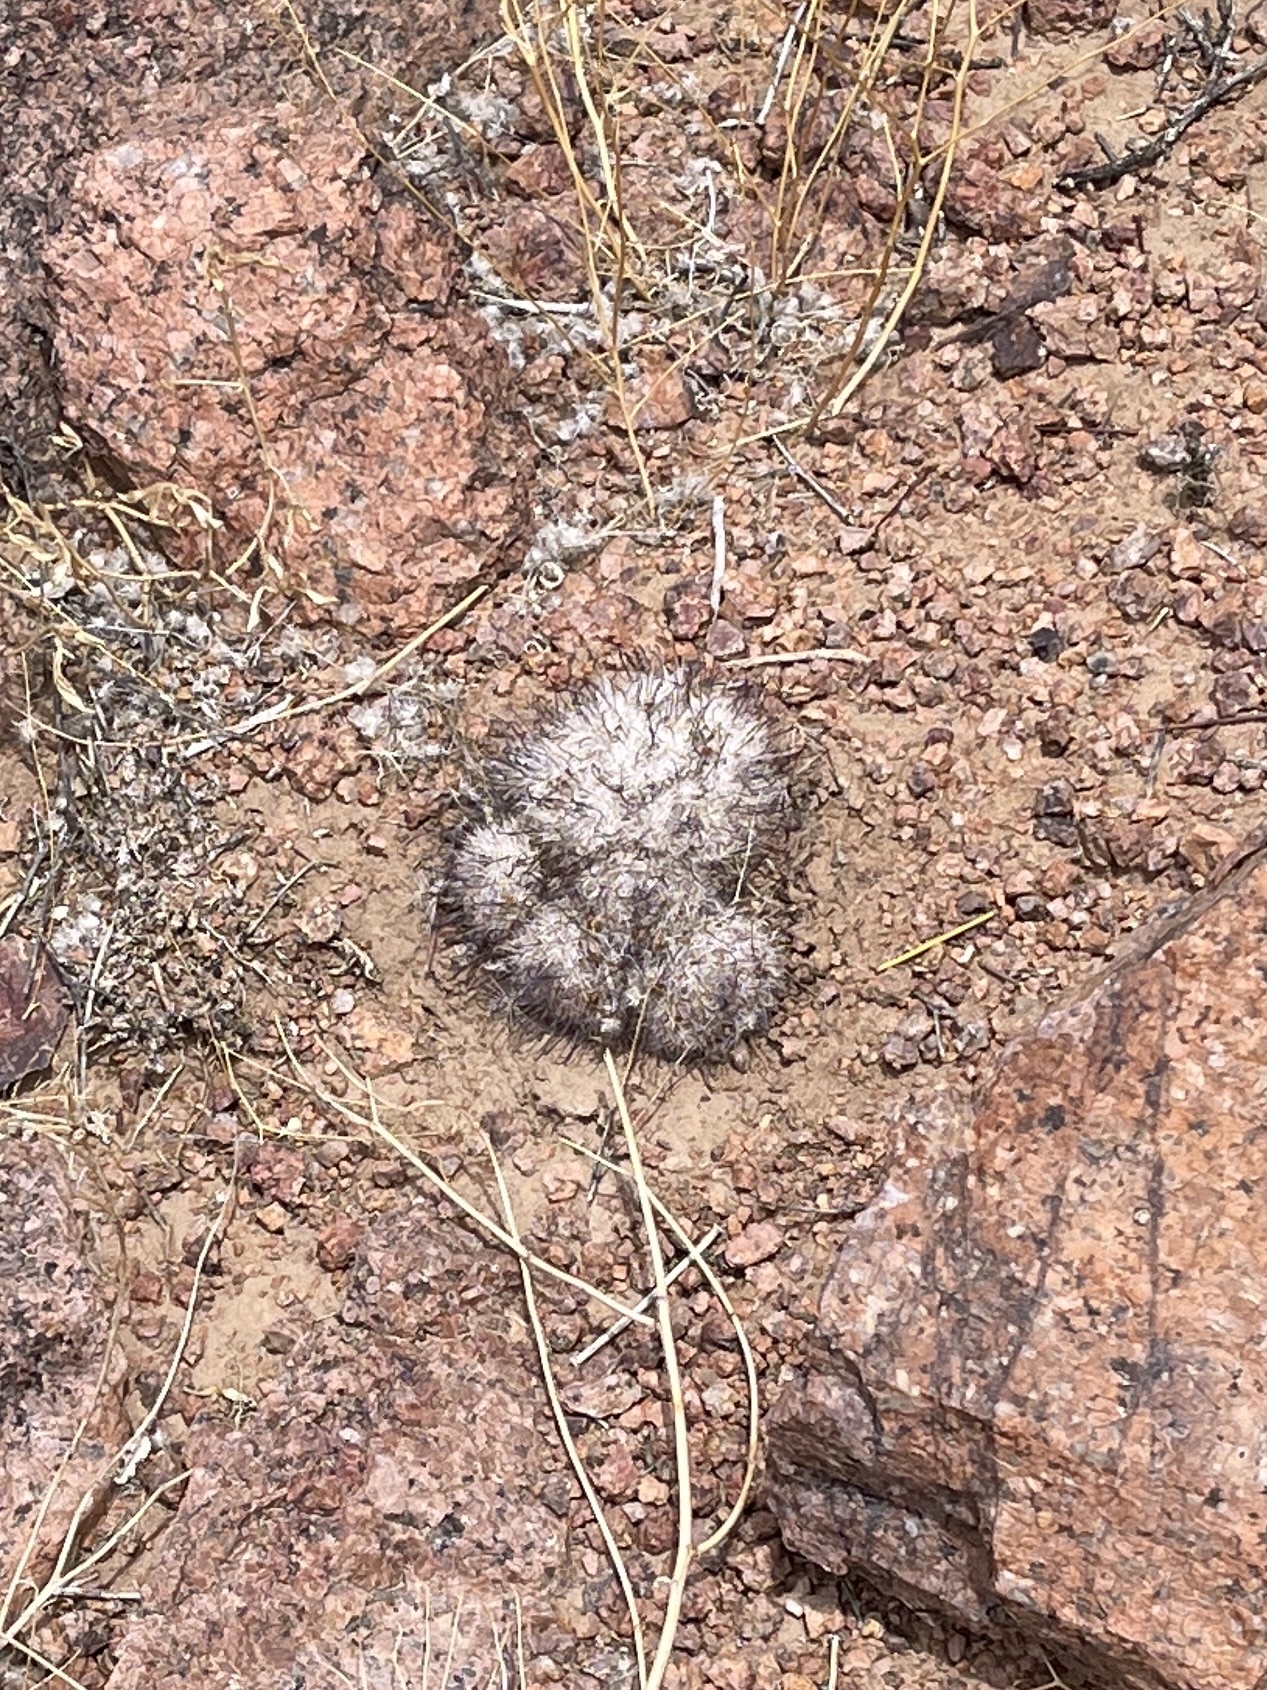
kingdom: Plantae
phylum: Tracheophyta
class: Magnoliopsida
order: Caryophyllales
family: Cactaceae
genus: Cochemiea
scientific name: Cochemiea grahamii
